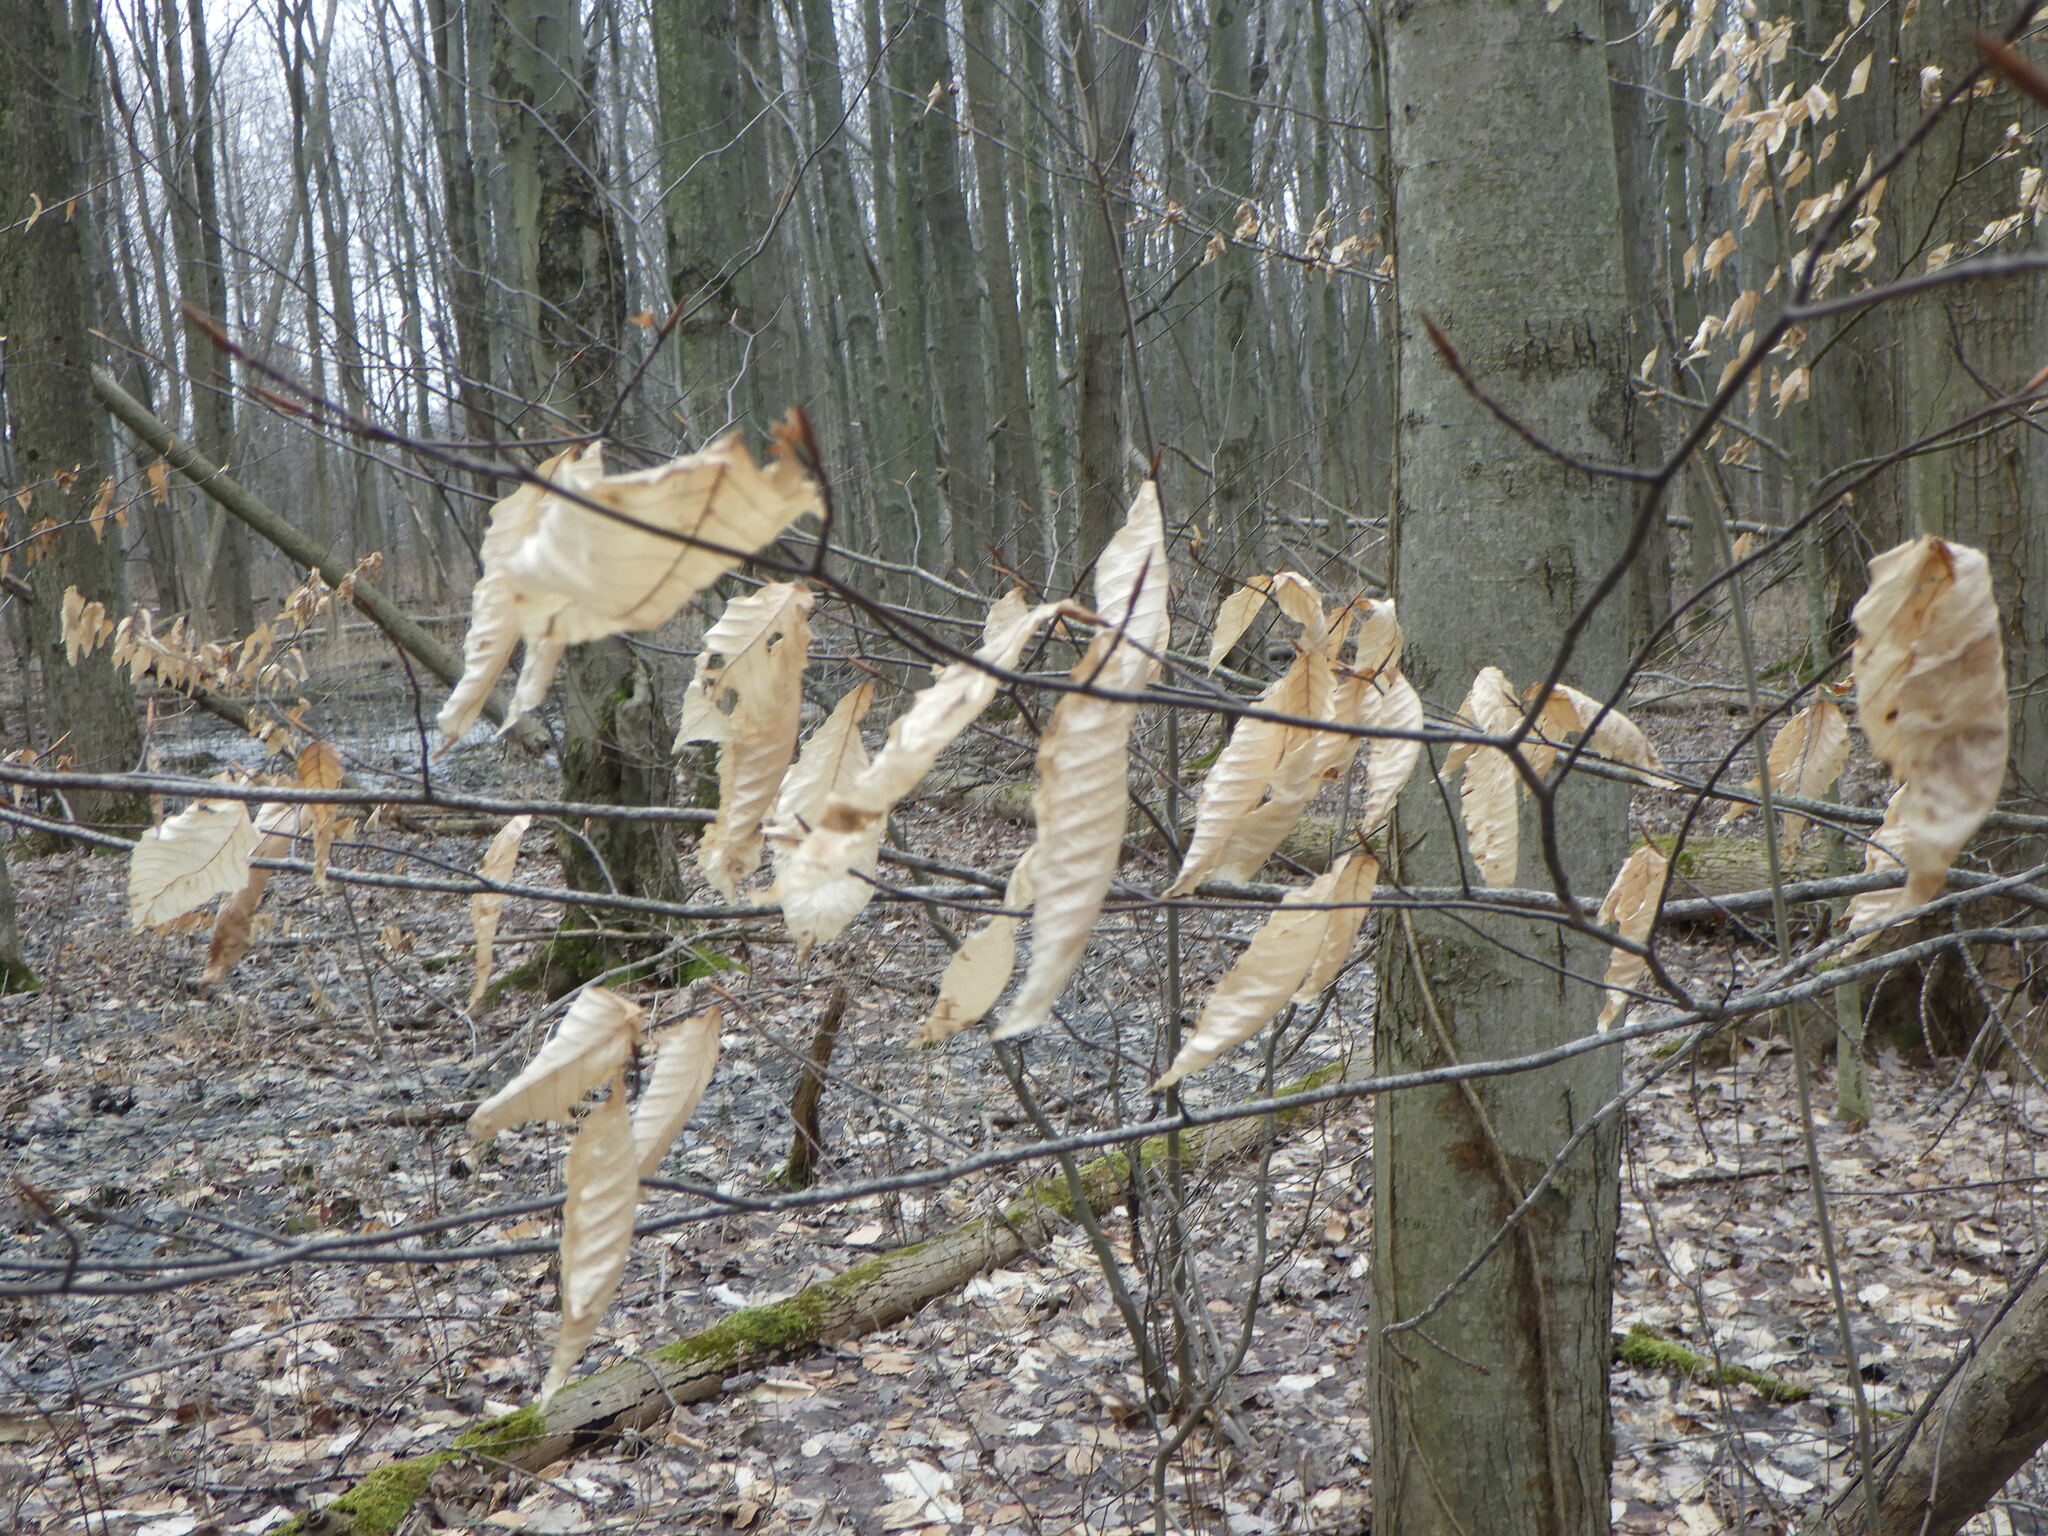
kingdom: Plantae
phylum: Tracheophyta
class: Magnoliopsida
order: Fagales
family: Fagaceae
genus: Fagus
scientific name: Fagus grandifolia
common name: American beech
